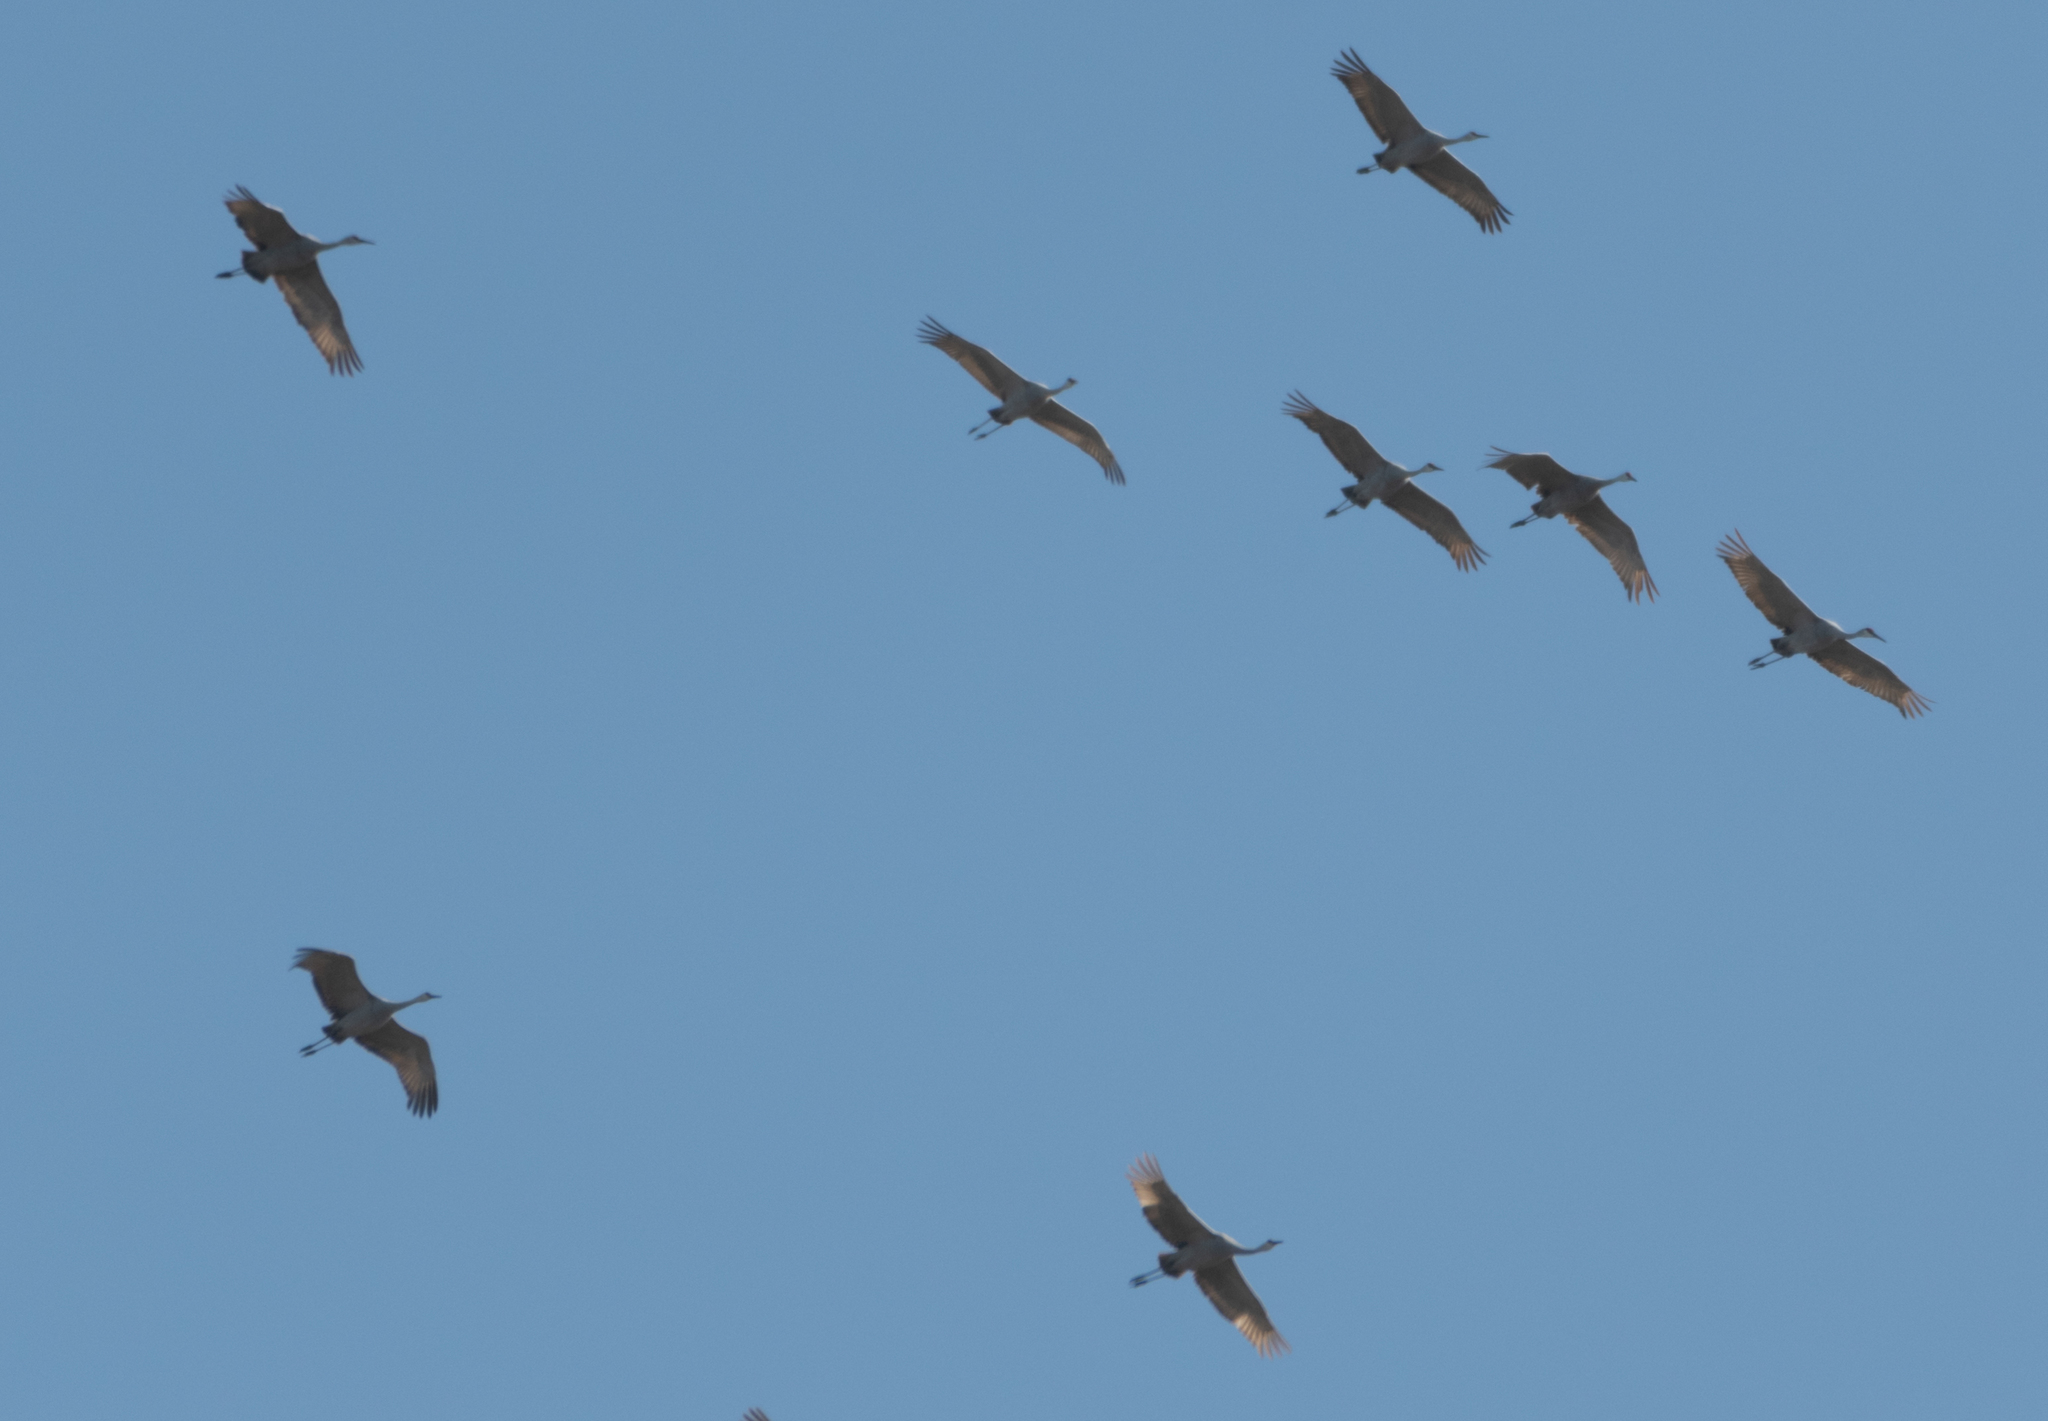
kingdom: Animalia
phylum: Chordata
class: Aves
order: Gruiformes
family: Gruidae
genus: Grus
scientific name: Grus canadensis
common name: Sandhill crane
